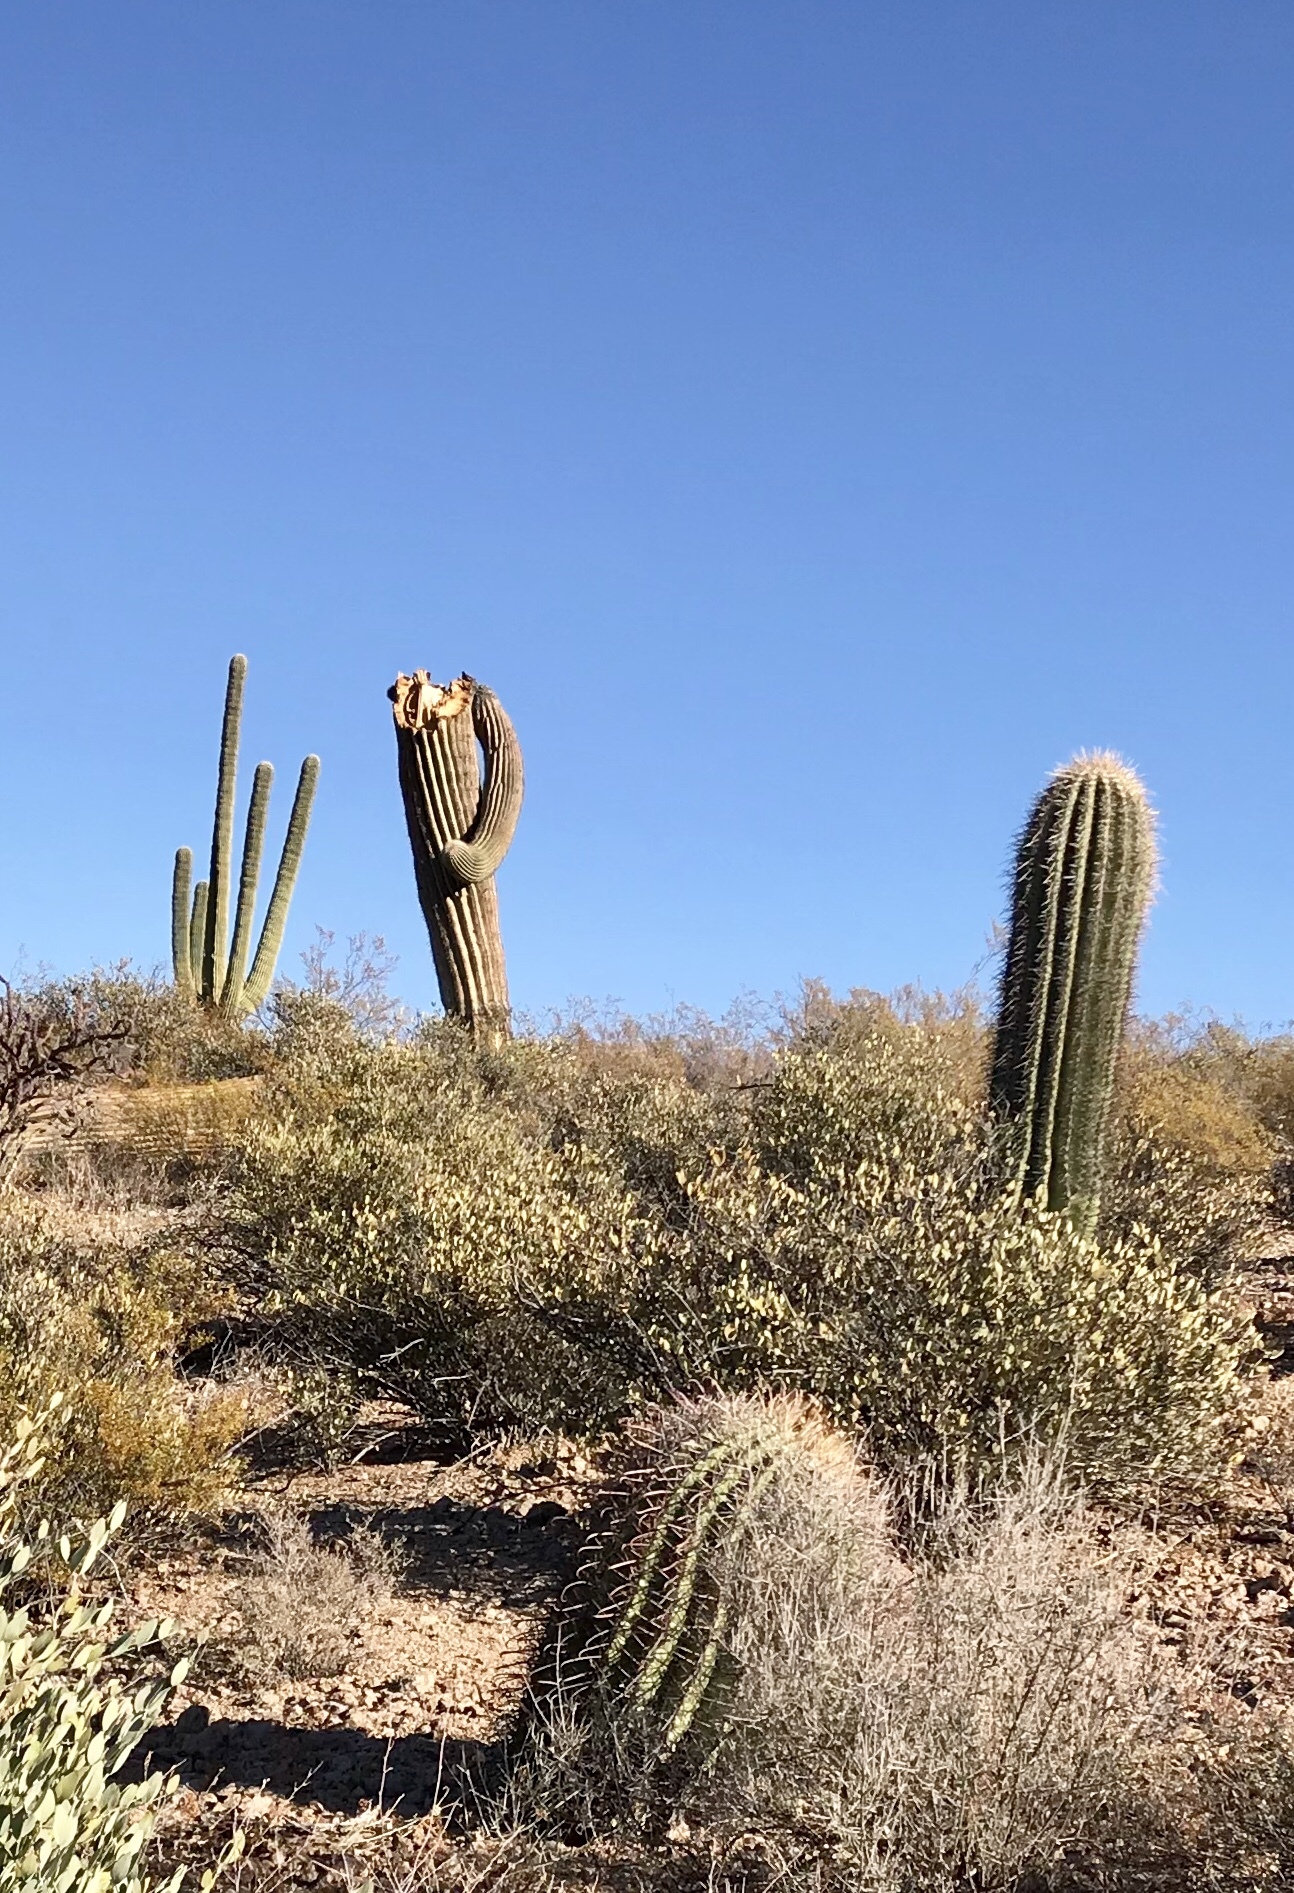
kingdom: Plantae
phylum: Tracheophyta
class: Magnoliopsida
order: Caryophyllales
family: Cactaceae
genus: Carnegiea
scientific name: Carnegiea gigantea
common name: Saguaro
